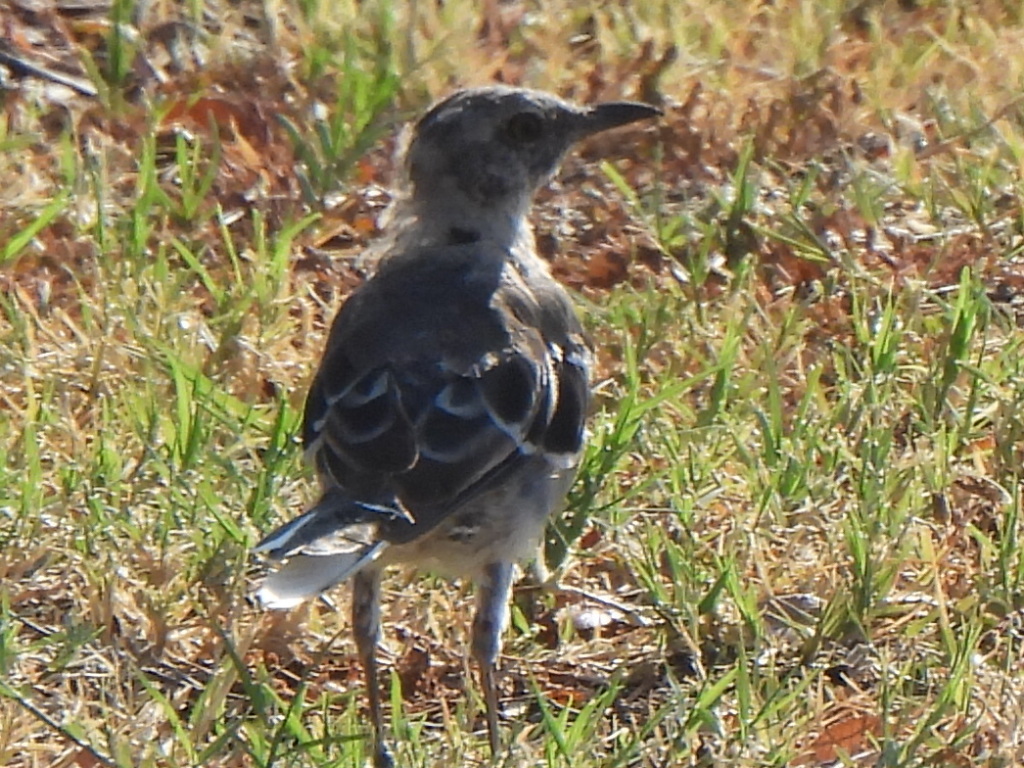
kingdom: Animalia
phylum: Chordata
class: Aves
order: Passeriformes
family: Mimidae
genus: Mimus
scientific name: Mimus polyglottos
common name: Northern mockingbird
